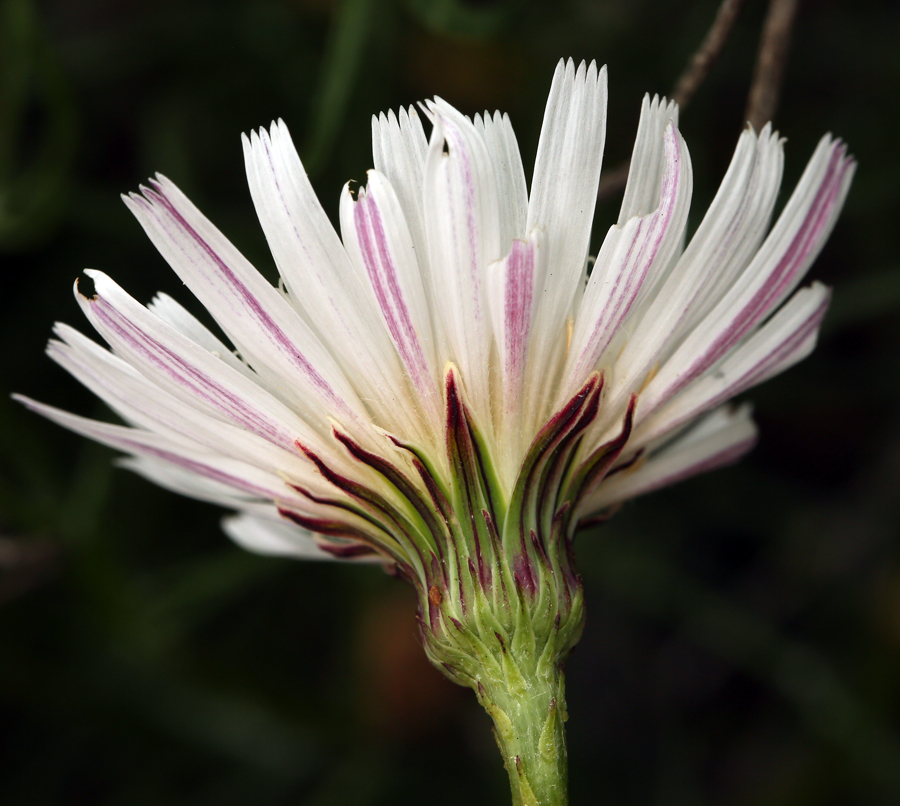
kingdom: Plantae
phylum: Tracheophyta
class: Magnoliopsida
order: Asterales
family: Asteraceae
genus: Malacothrix
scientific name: Malacothrix saxatilis
